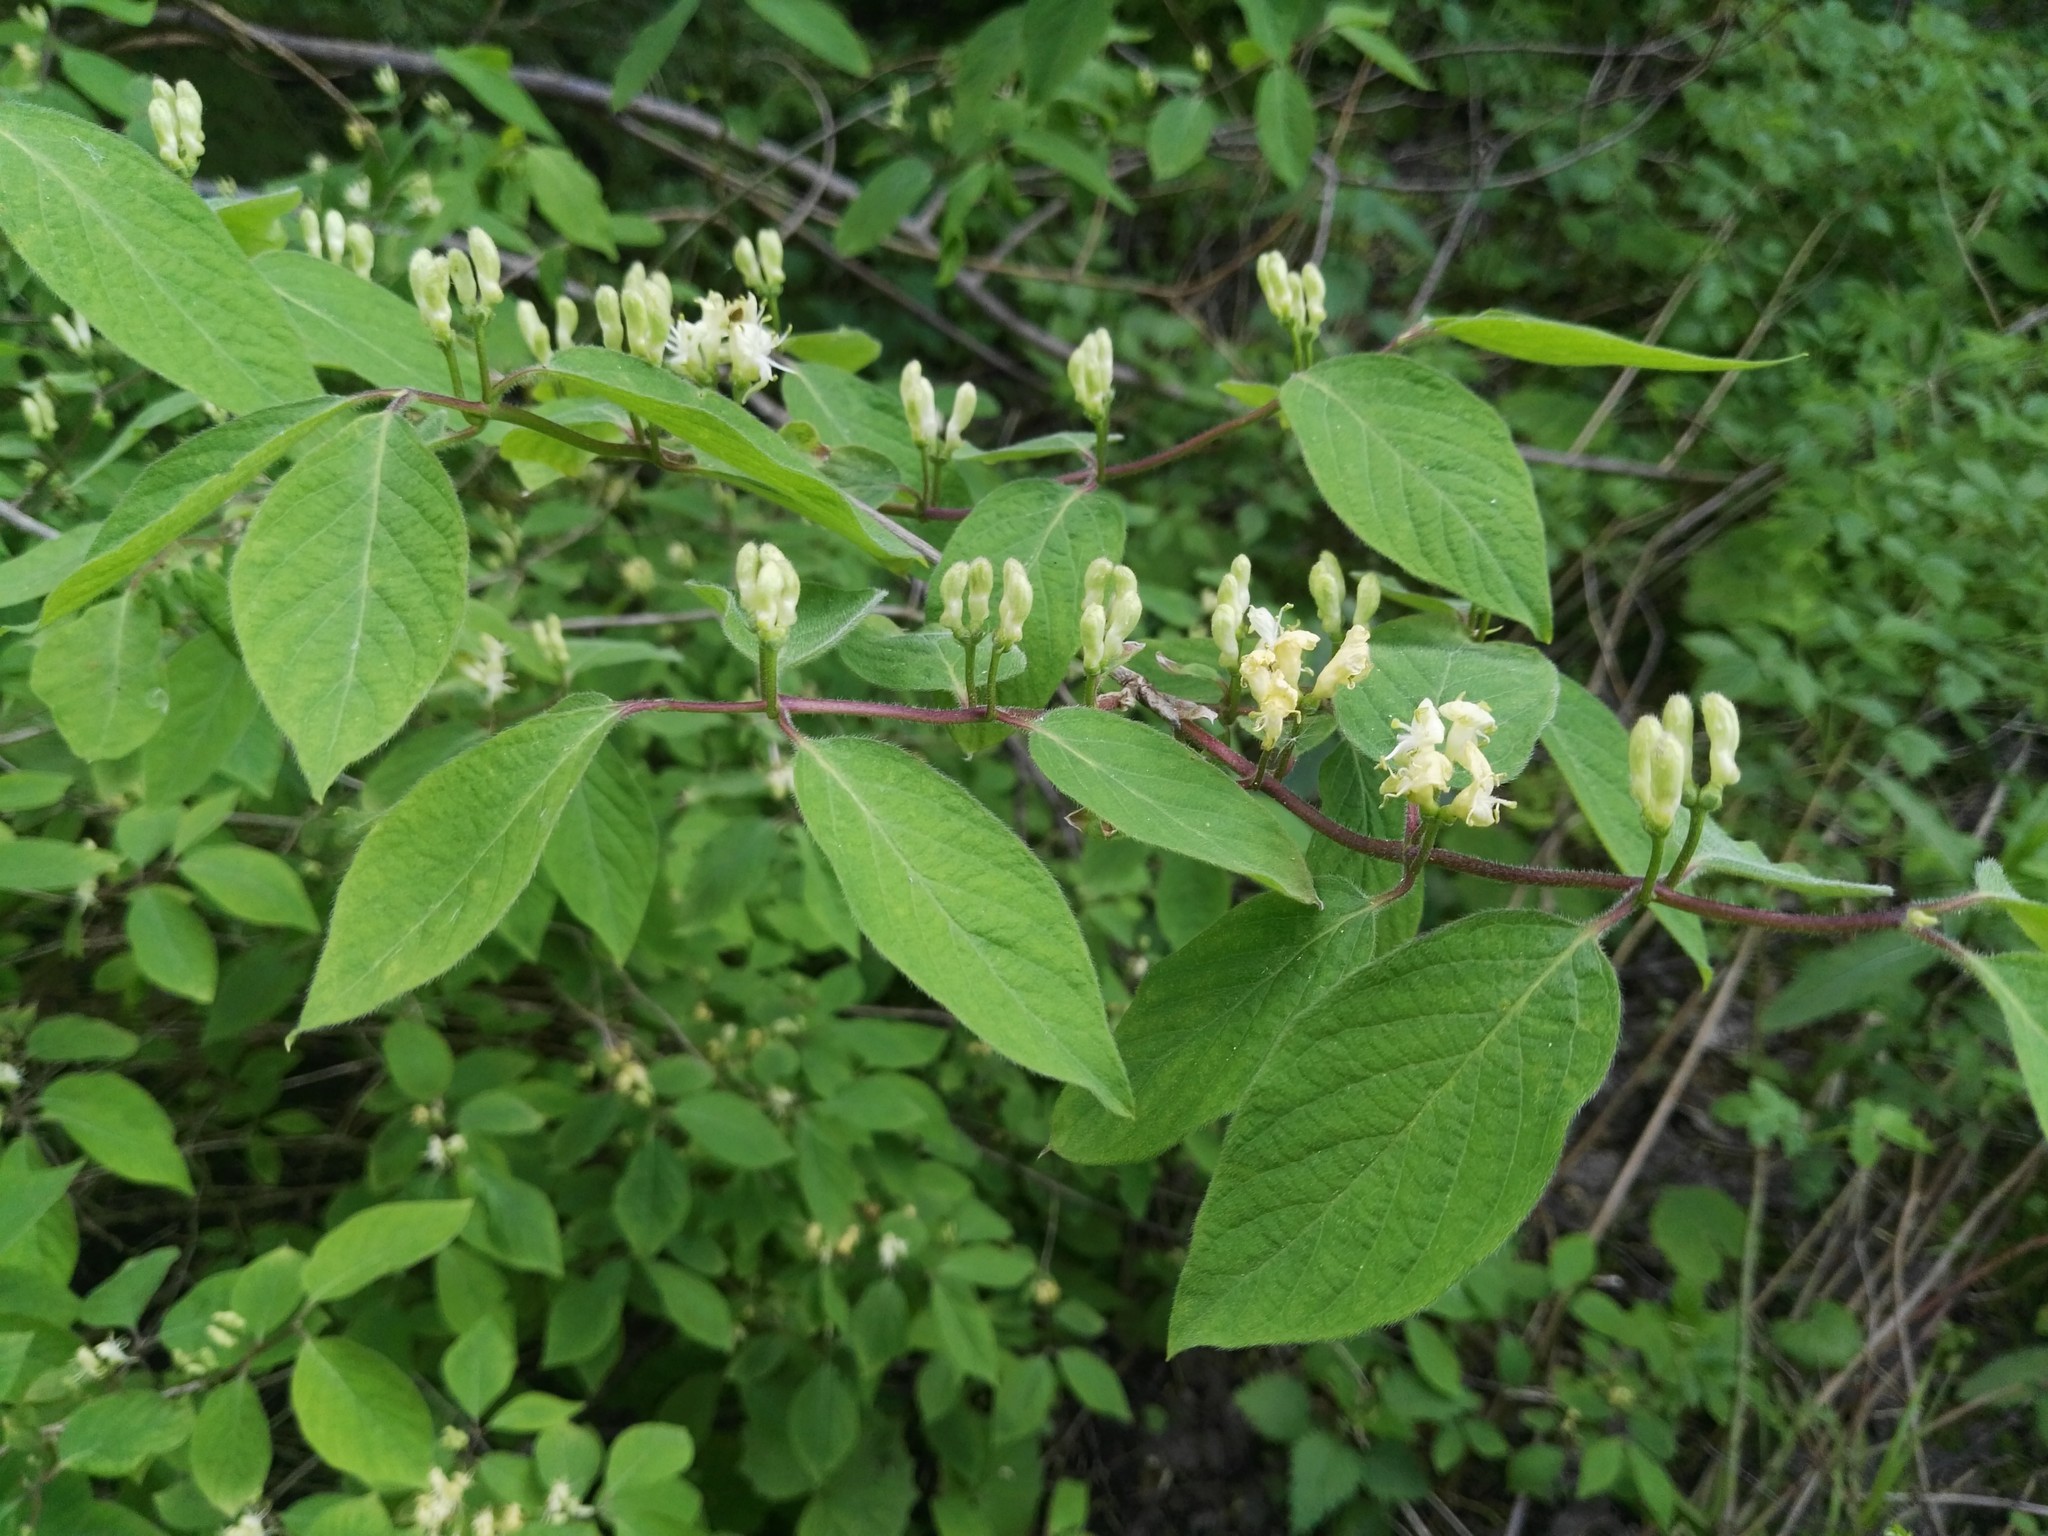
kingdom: Plantae
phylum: Tracheophyta
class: Magnoliopsida
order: Dipsacales
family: Caprifoliaceae
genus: Lonicera
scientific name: Lonicera xylosteum
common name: Fly honeysuckle
